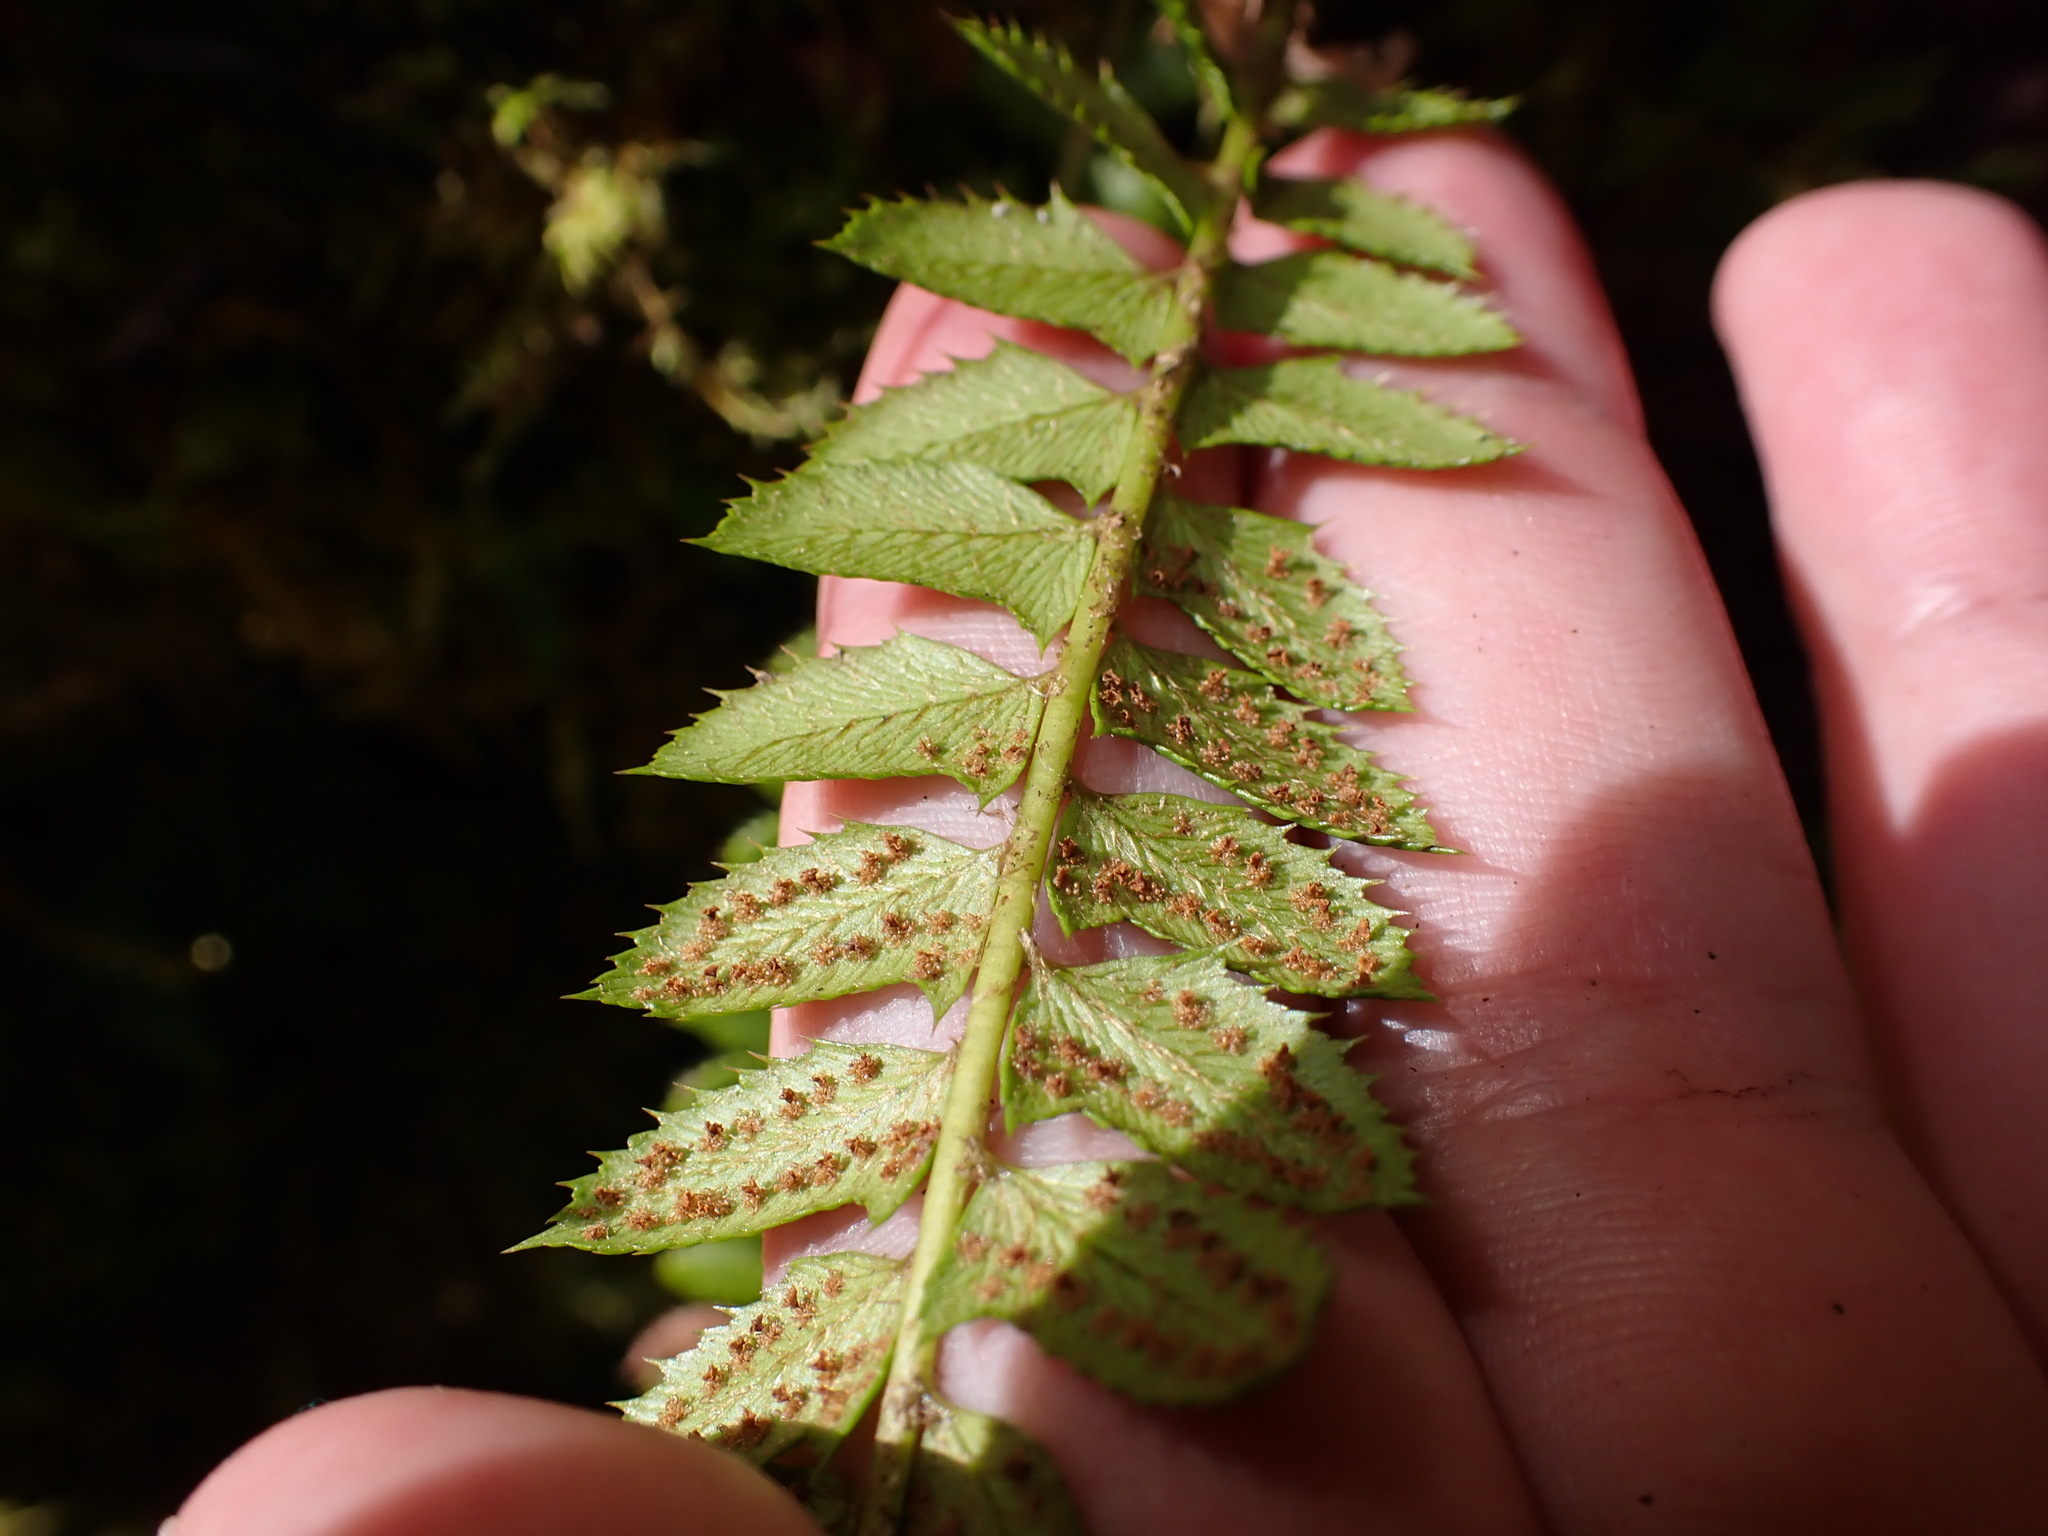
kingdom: Plantae
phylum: Tracheophyta
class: Polypodiopsida
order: Polypodiales
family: Dryopteridaceae
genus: Polystichum
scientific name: Polystichum lonchitis
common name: Holly fern
